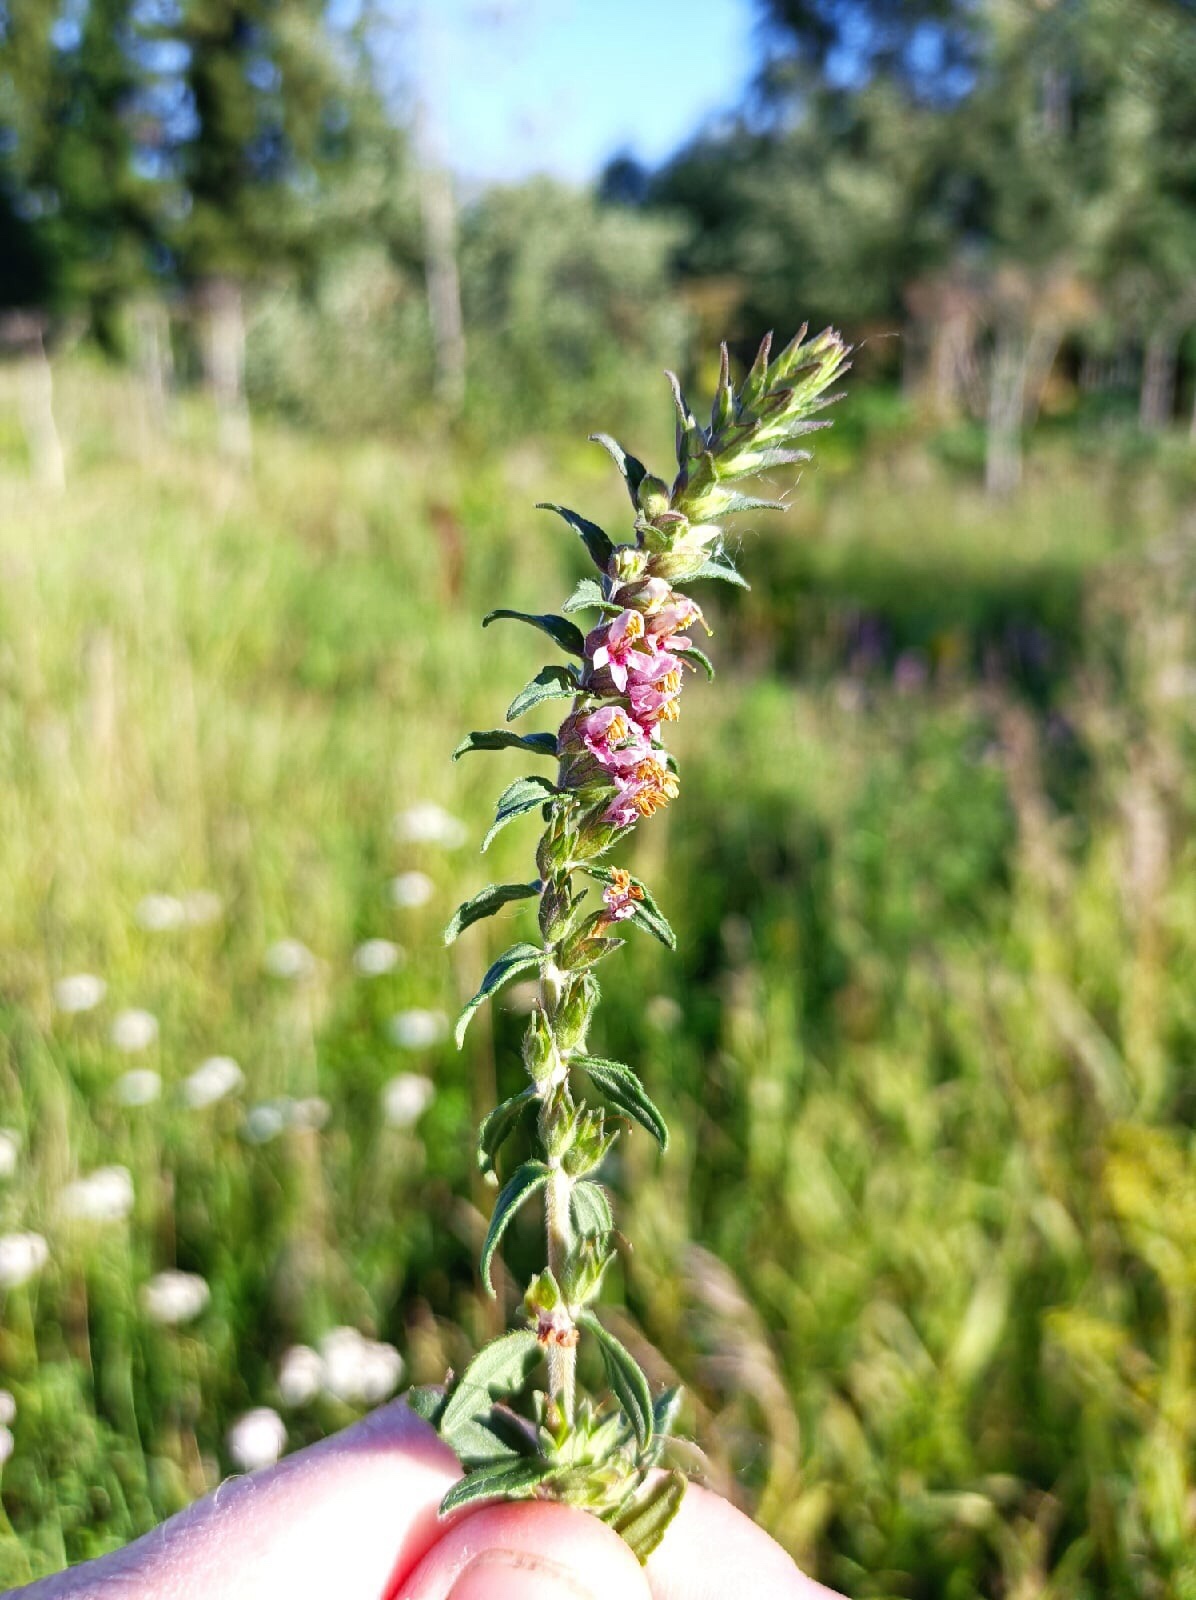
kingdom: Plantae
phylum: Tracheophyta
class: Magnoliopsida
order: Lamiales
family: Orobanchaceae
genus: Odontites
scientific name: Odontites vulgaris
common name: Broomrape
